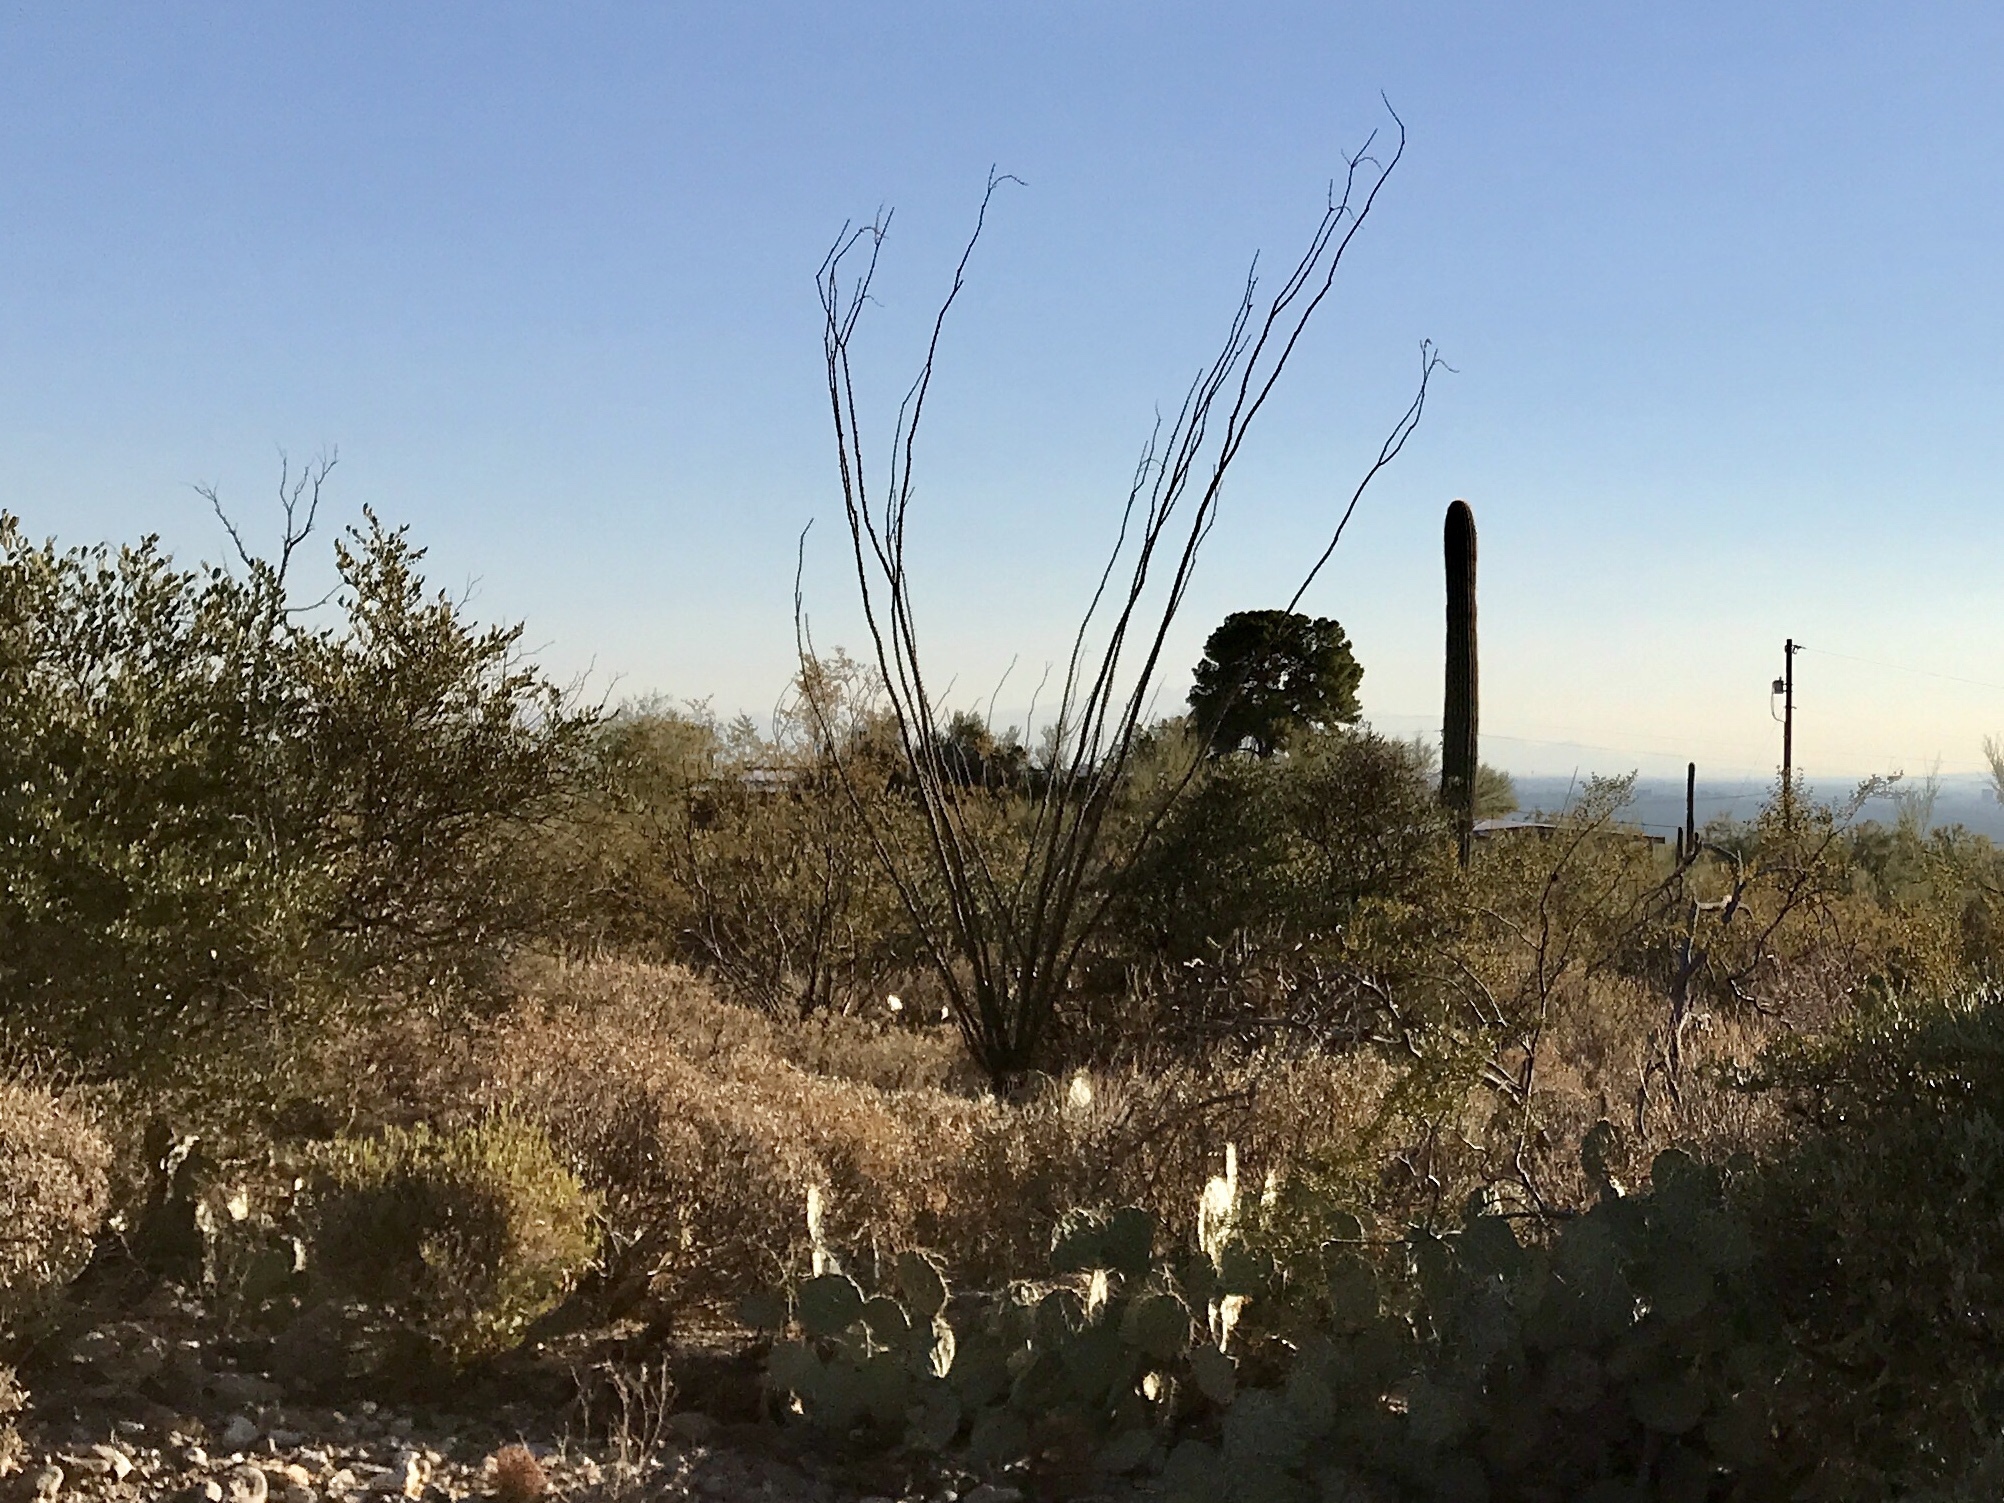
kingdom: Plantae
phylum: Tracheophyta
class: Magnoliopsida
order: Ericales
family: Fouquieriaceae
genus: Fouquieria
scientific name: Fouquieria splendens
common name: Vine-cactus
